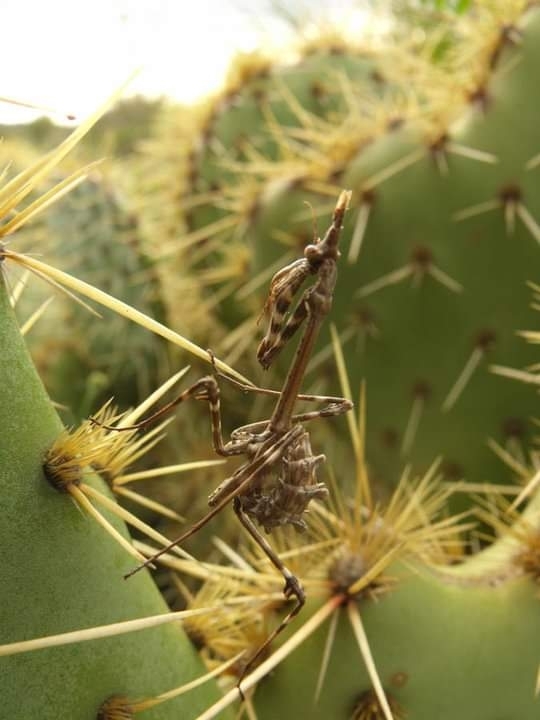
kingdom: Animalia
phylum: Arthropoda
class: Insecta
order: Mantodea
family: Empusidae
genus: Empusa
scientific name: Empusa pennata
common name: Conehead mantis
